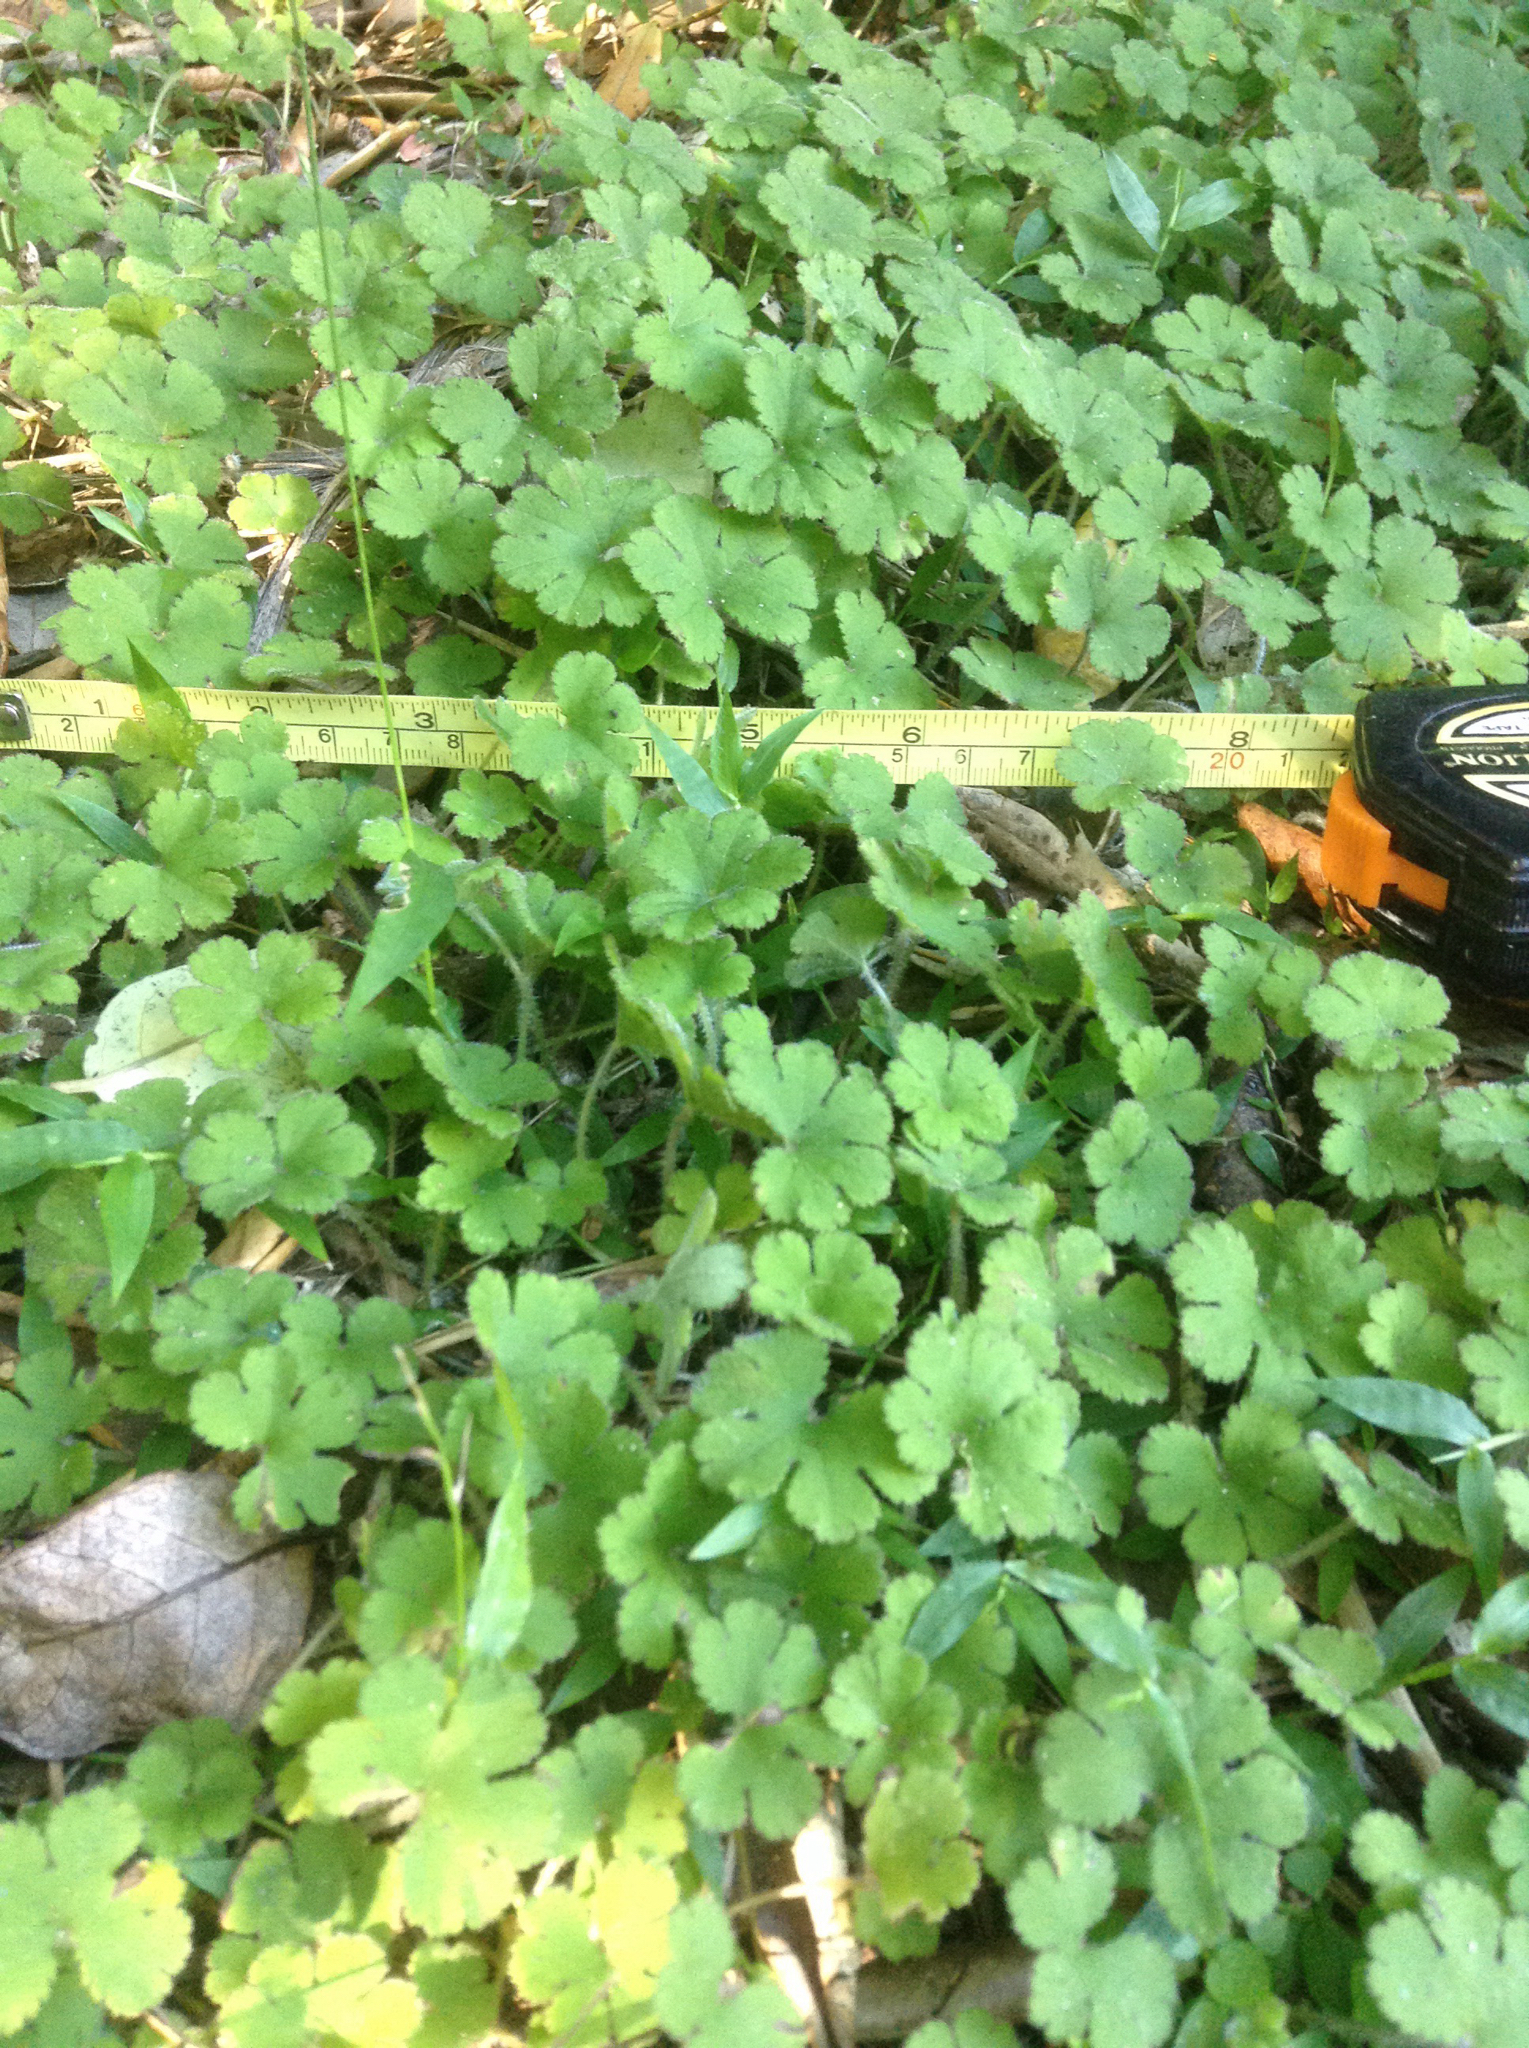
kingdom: Plantae
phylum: Tracheophyta
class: Magnoliopsida
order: Apiales
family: Araliaceae
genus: Hydrocotyle
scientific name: Hydrocotyle elongata
